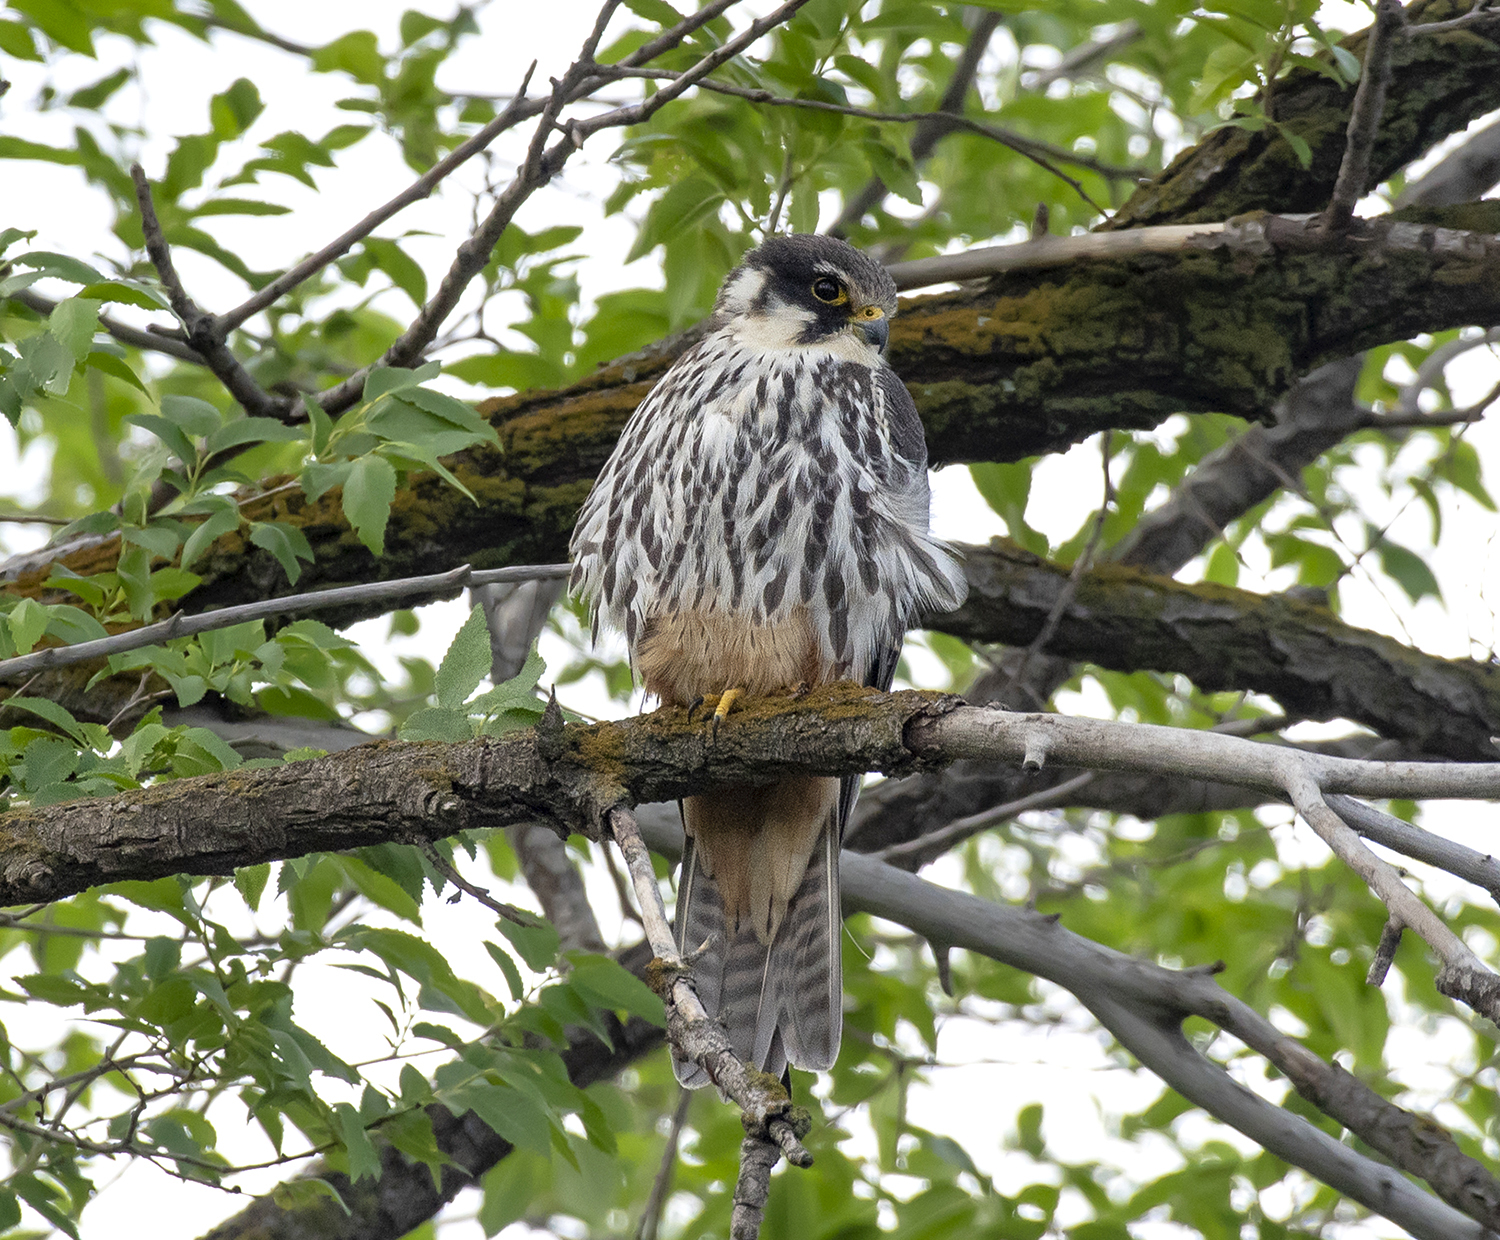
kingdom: Animalia
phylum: Chordata
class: Aves
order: Falconiformes
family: Falconidae
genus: Falco
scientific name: Falco subbuteo
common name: Eurasian hobby
